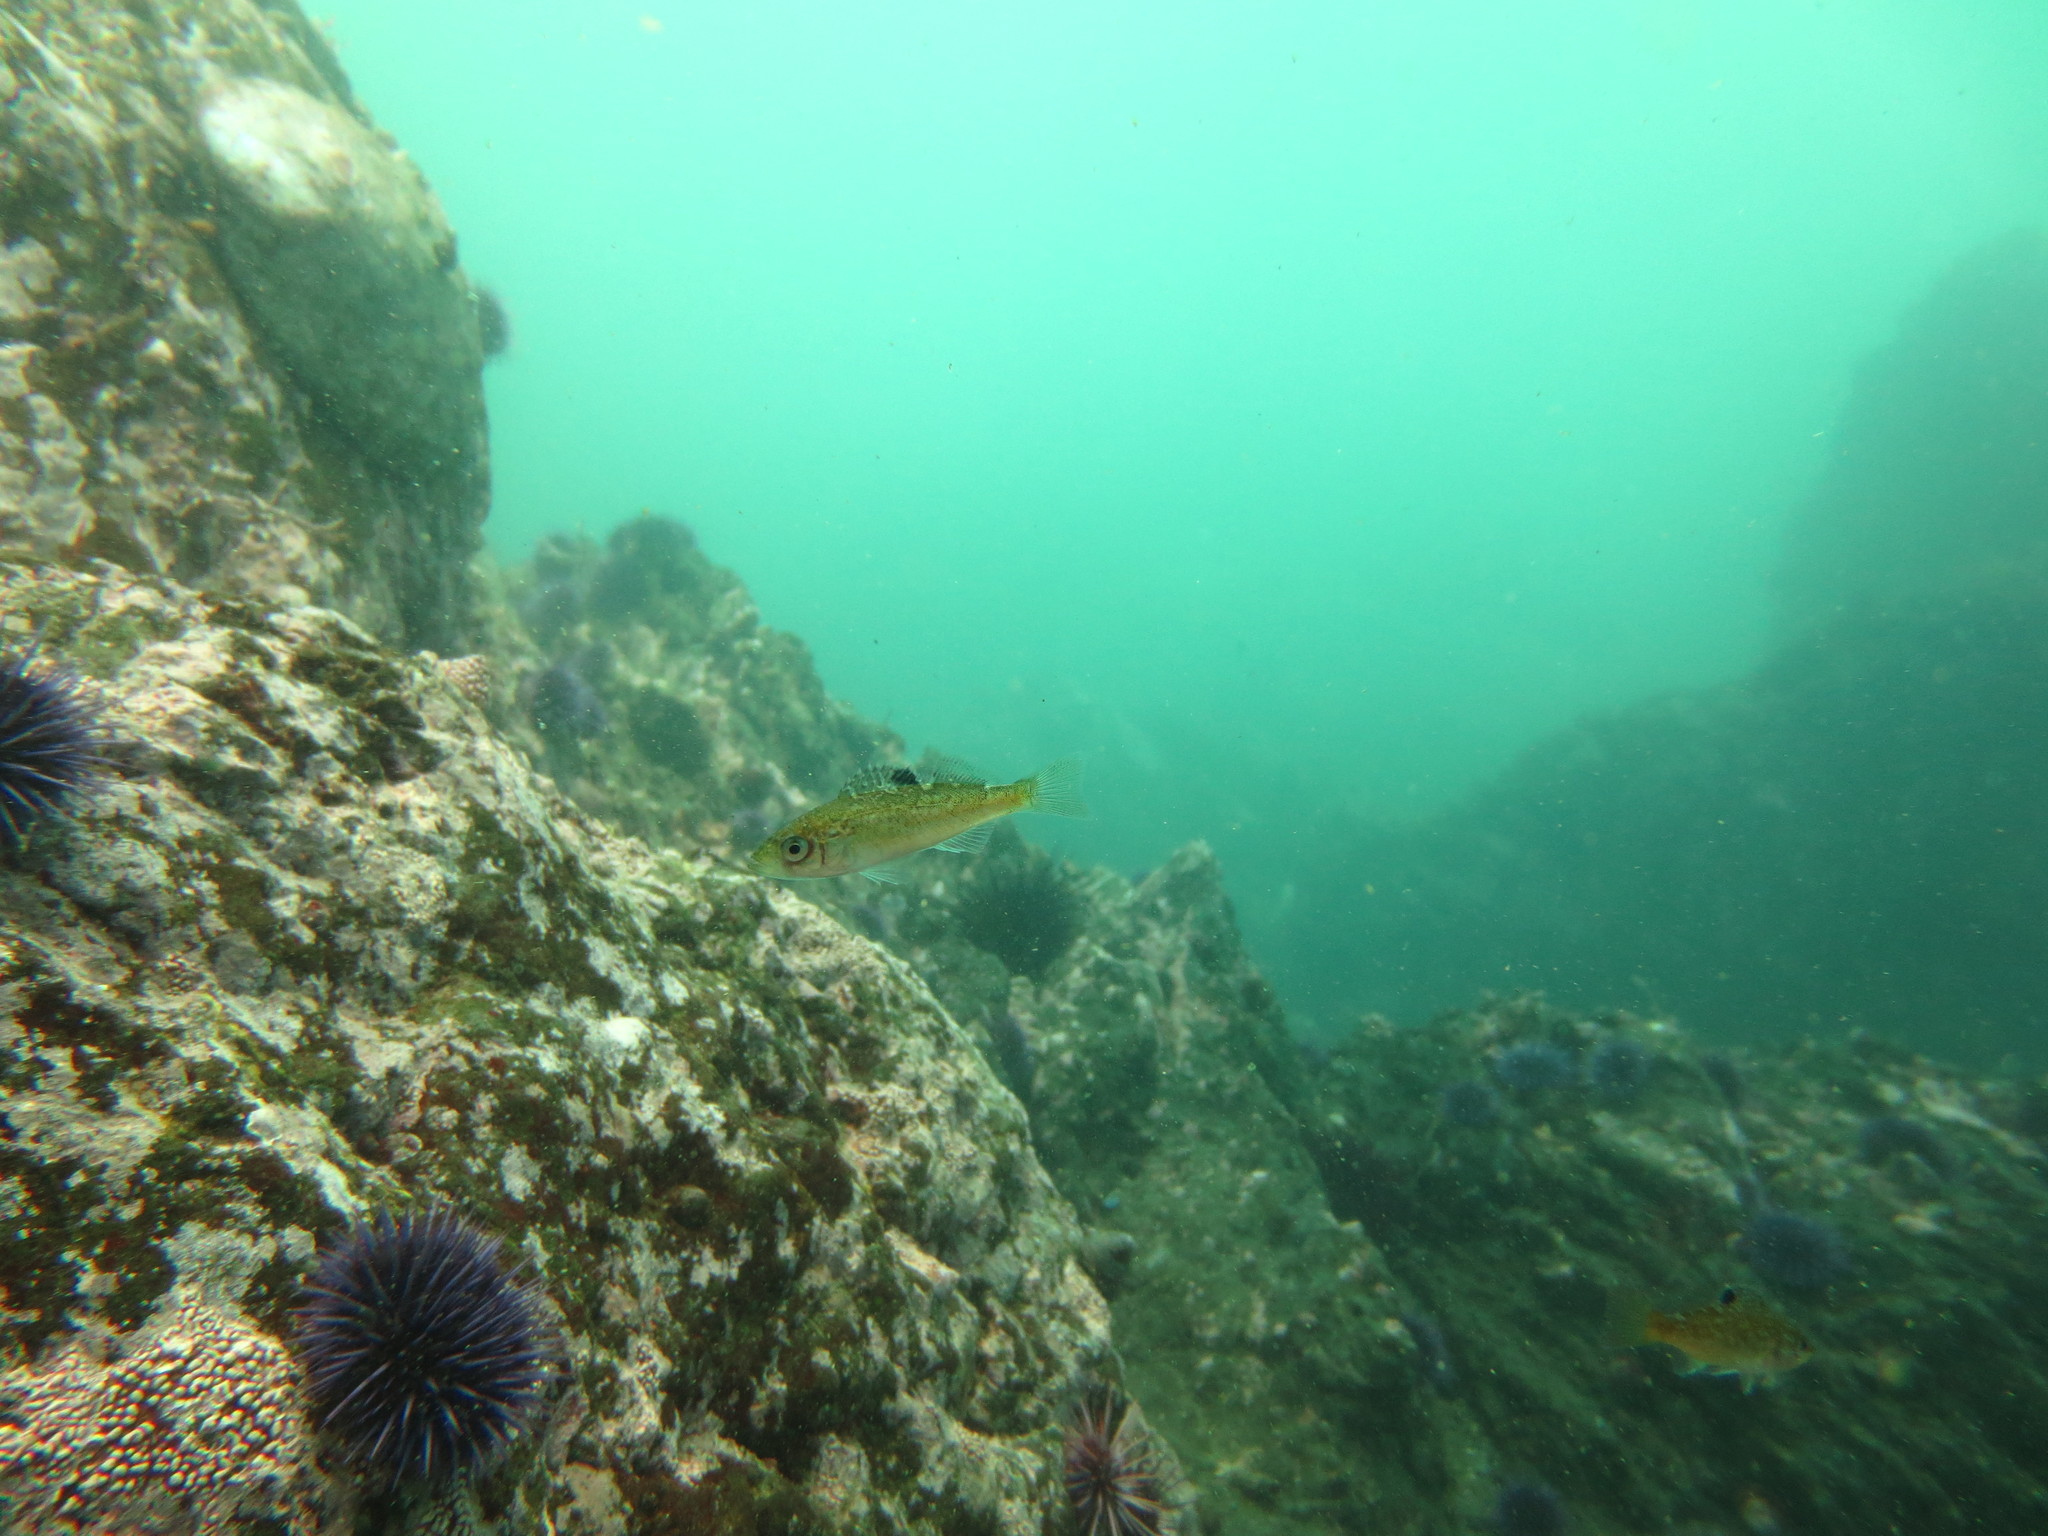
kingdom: Animalia
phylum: Chordata
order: Scorpaeniformes
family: Sebastidae
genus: Sebastes
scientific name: Sebastes melanops
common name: Black rockfish
